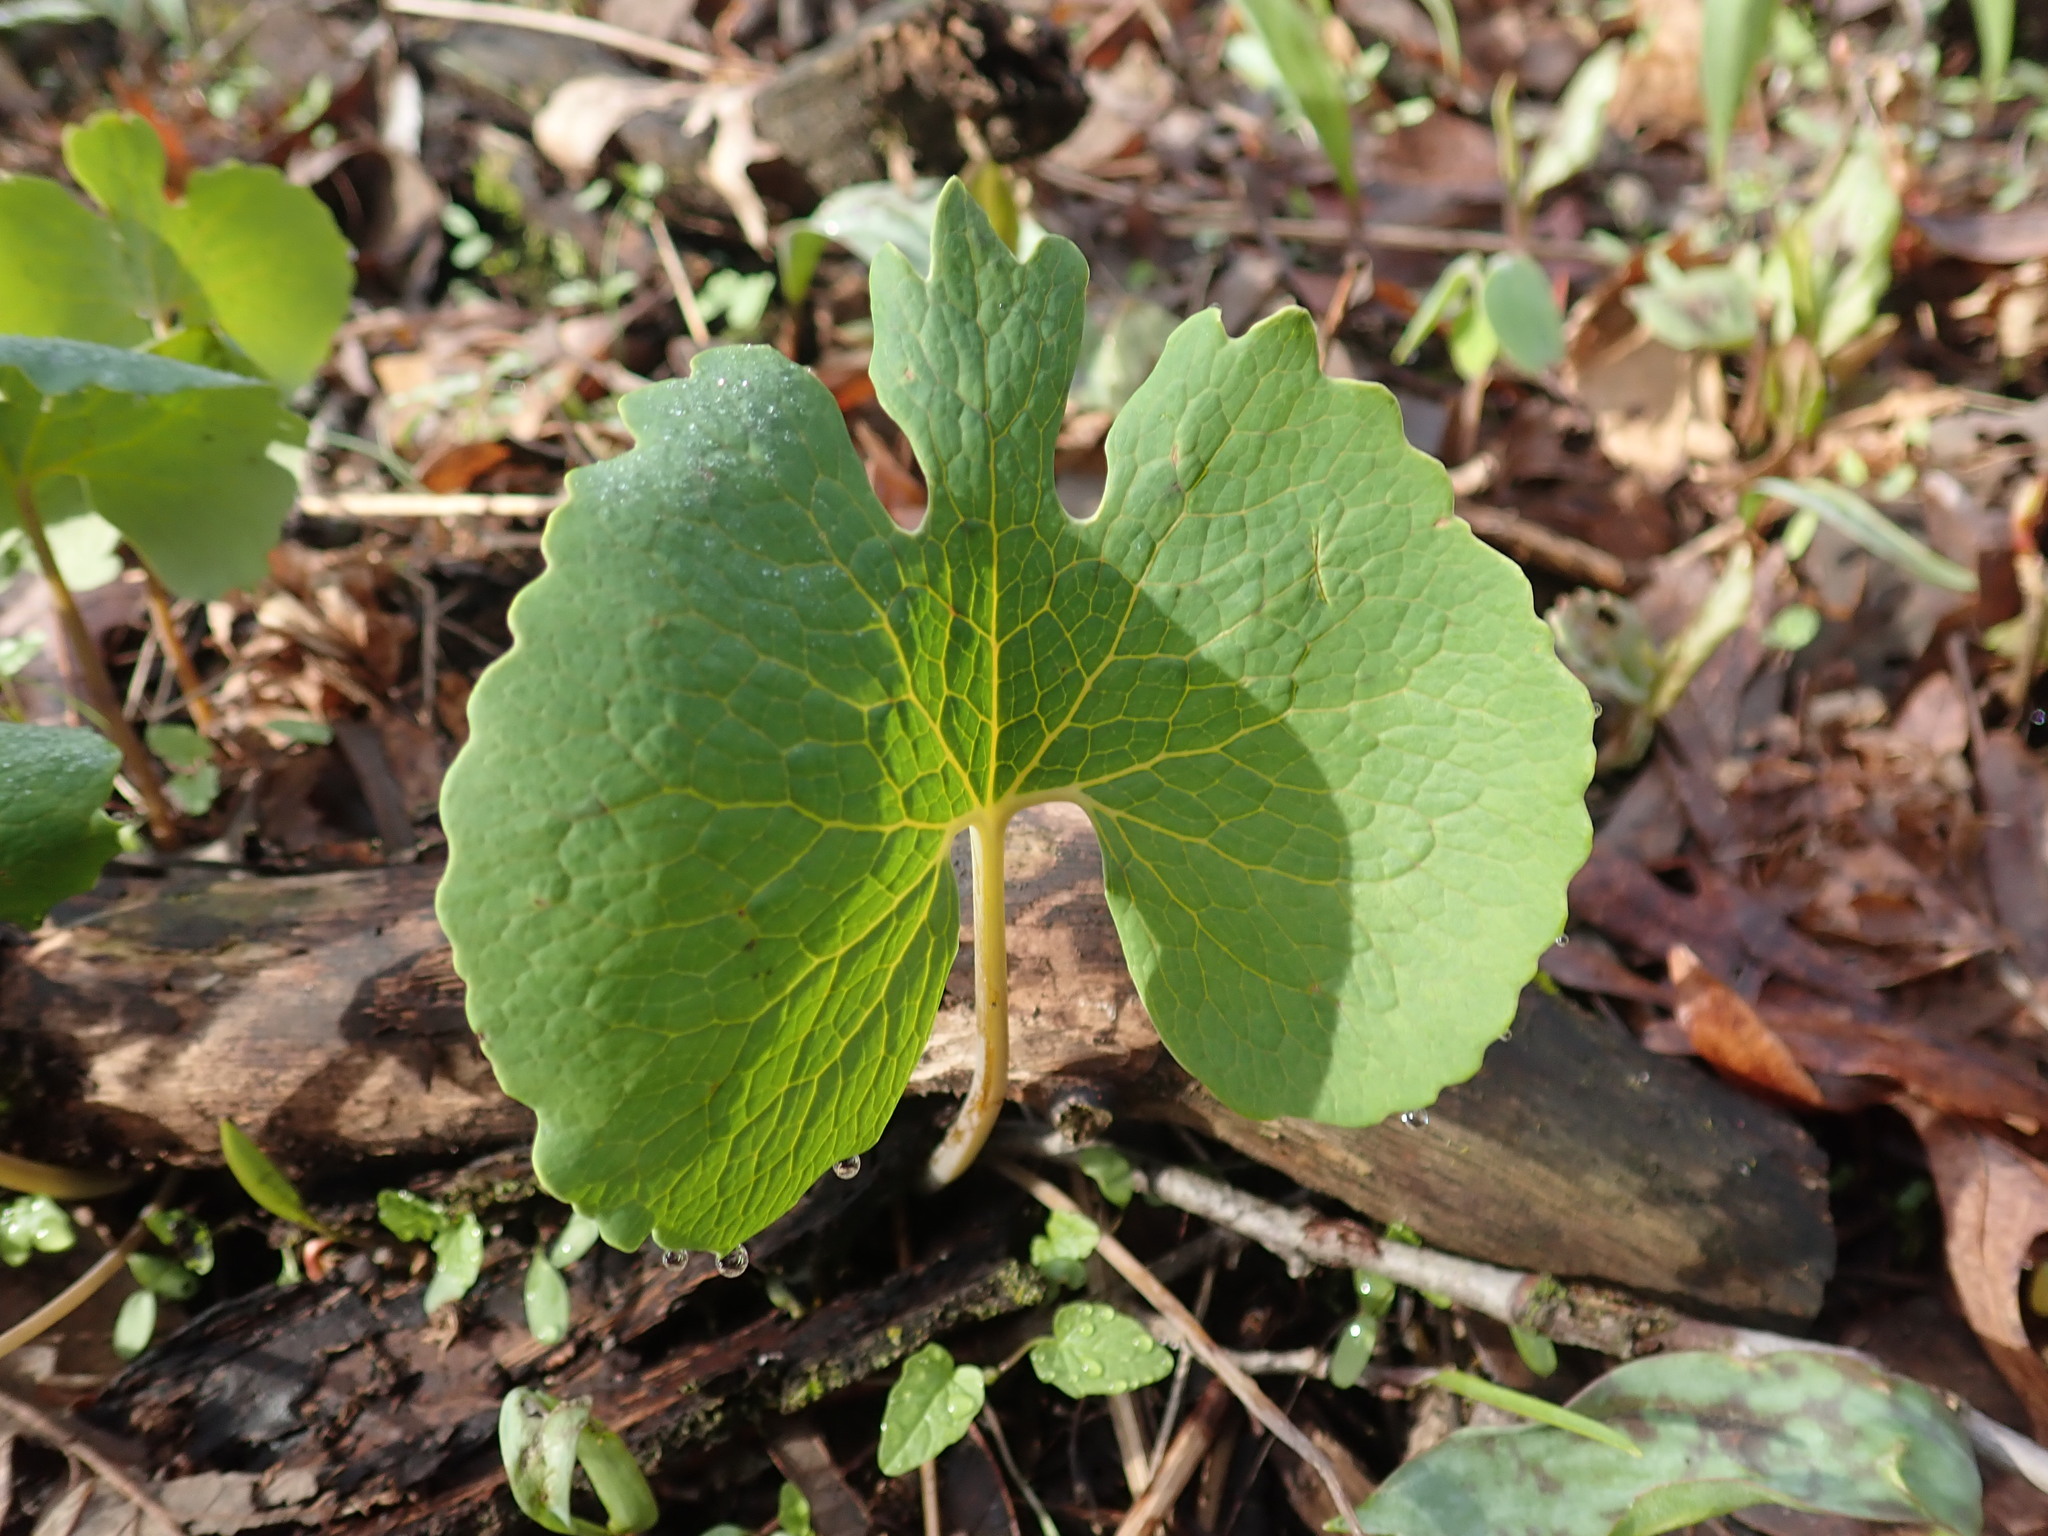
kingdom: Plantae
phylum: Tracheophyta
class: Magnoliopsida
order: Ranunculales
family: Papaveraceae
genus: Sanguinaria
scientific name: Sanguinaria canadensis
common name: Bloodroot
